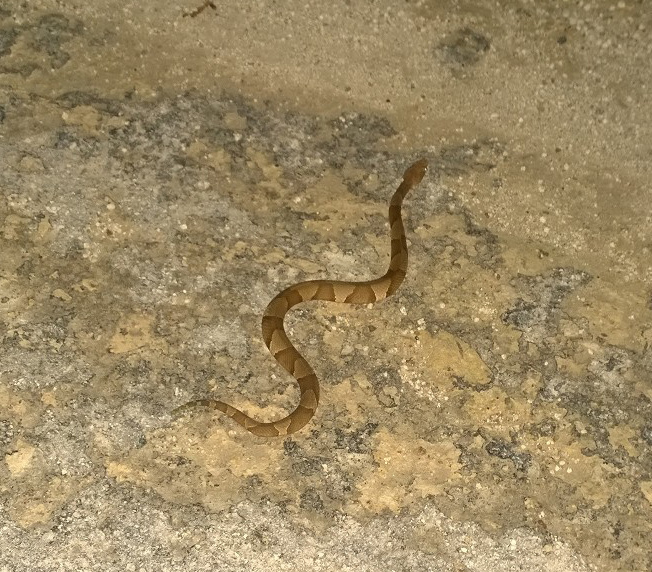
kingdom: Animalia
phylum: Chordata
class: Squamata
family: Viperidae
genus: Agkistrodon
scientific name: Agkistrodon laticinctus
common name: Broad-banded copperhead
